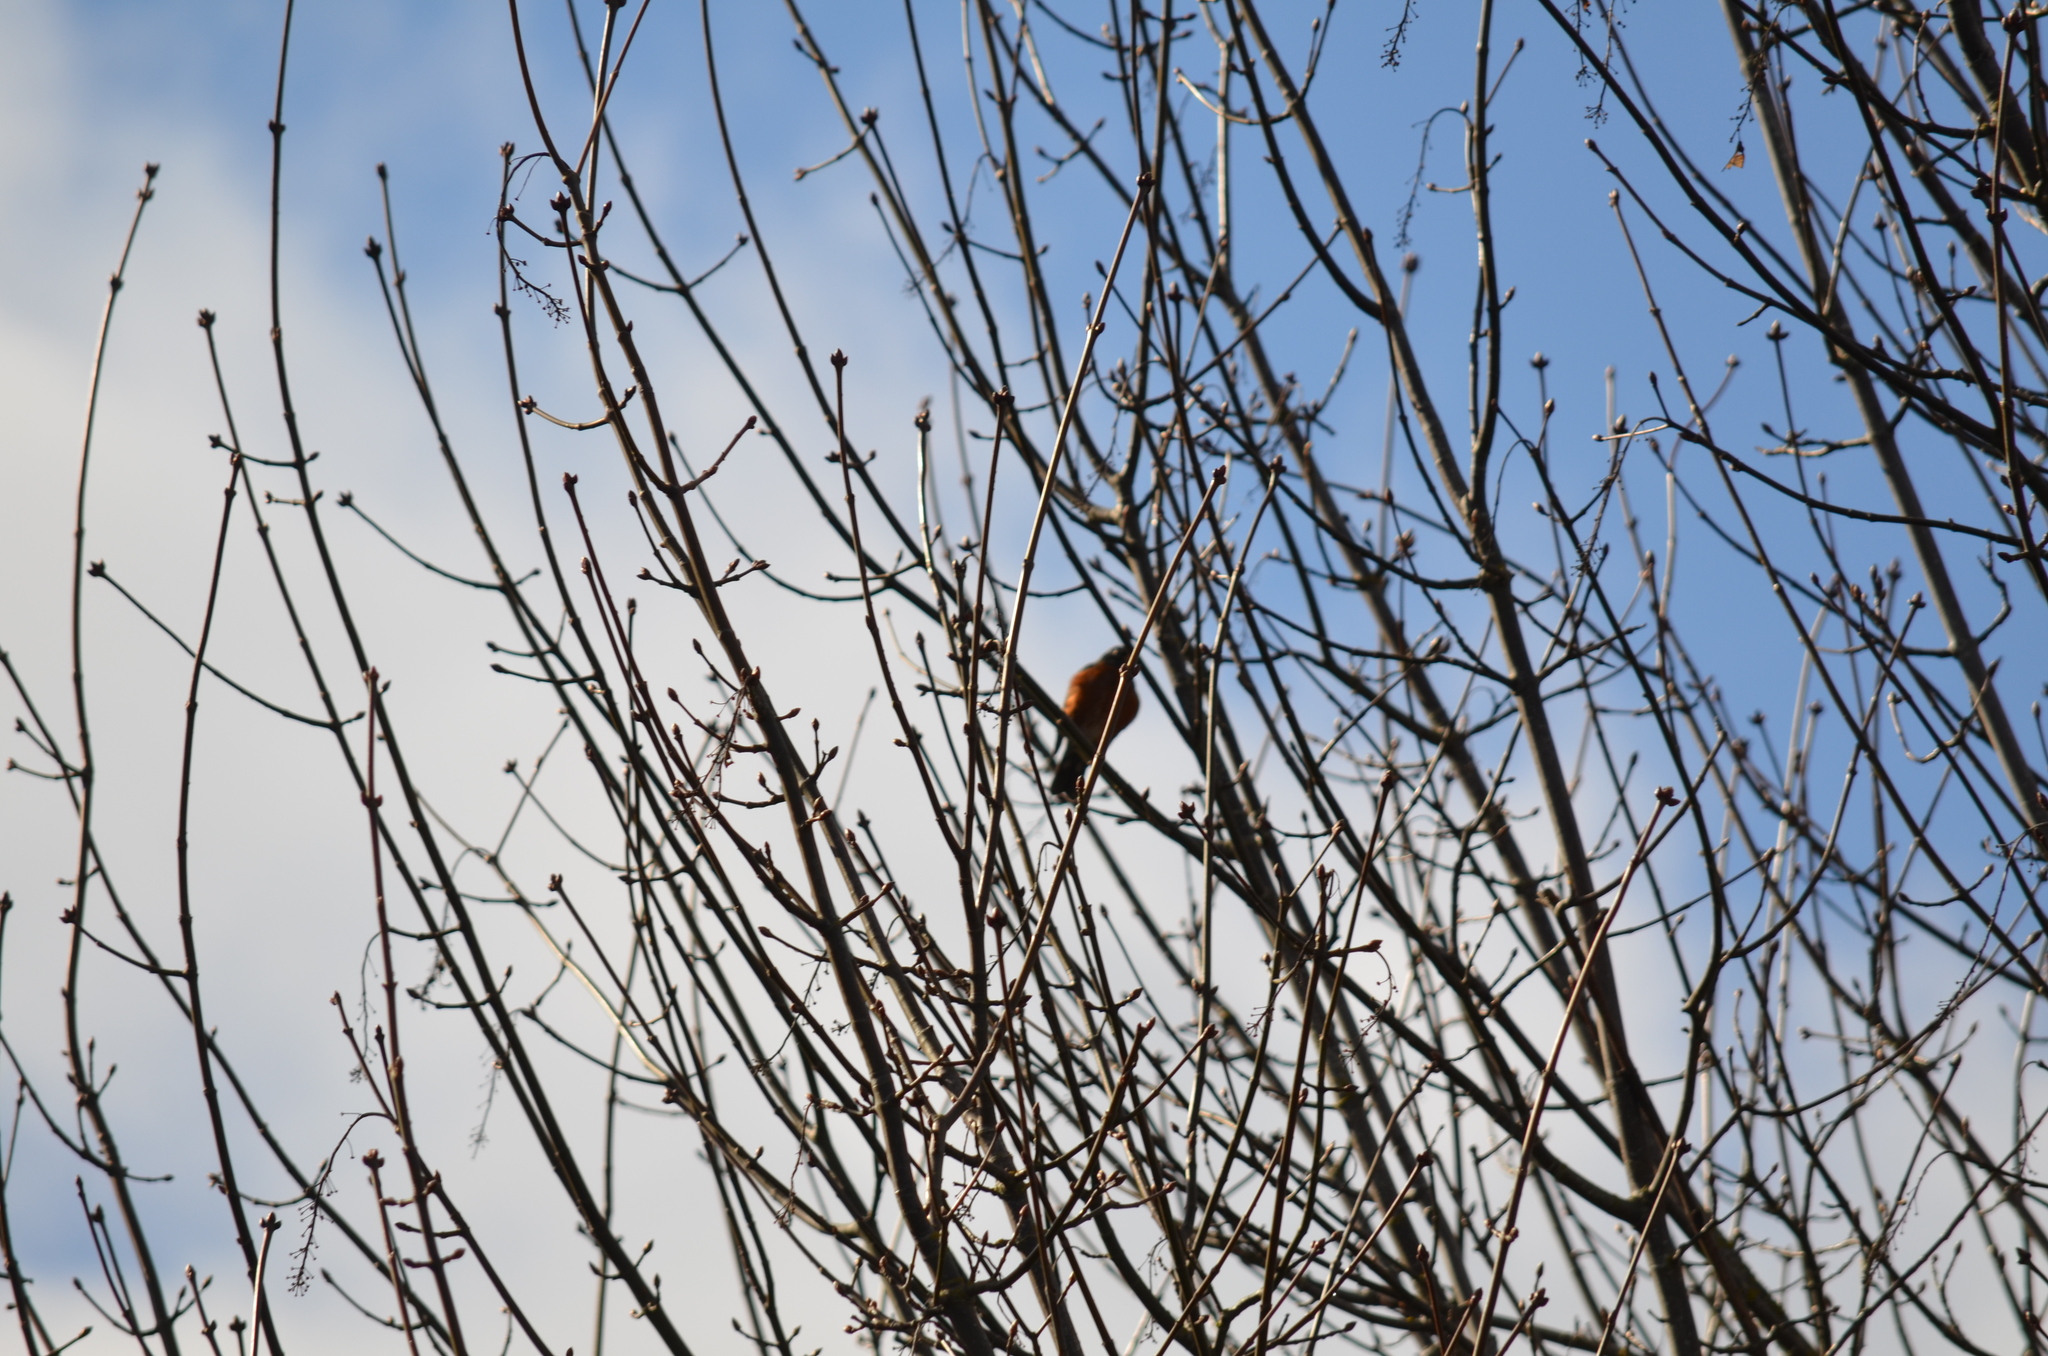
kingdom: Animalia
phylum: Chordata
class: Aves
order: Passeriformes
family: Turdidae
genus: Turdus
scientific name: Turdus migratorius
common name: American robin
